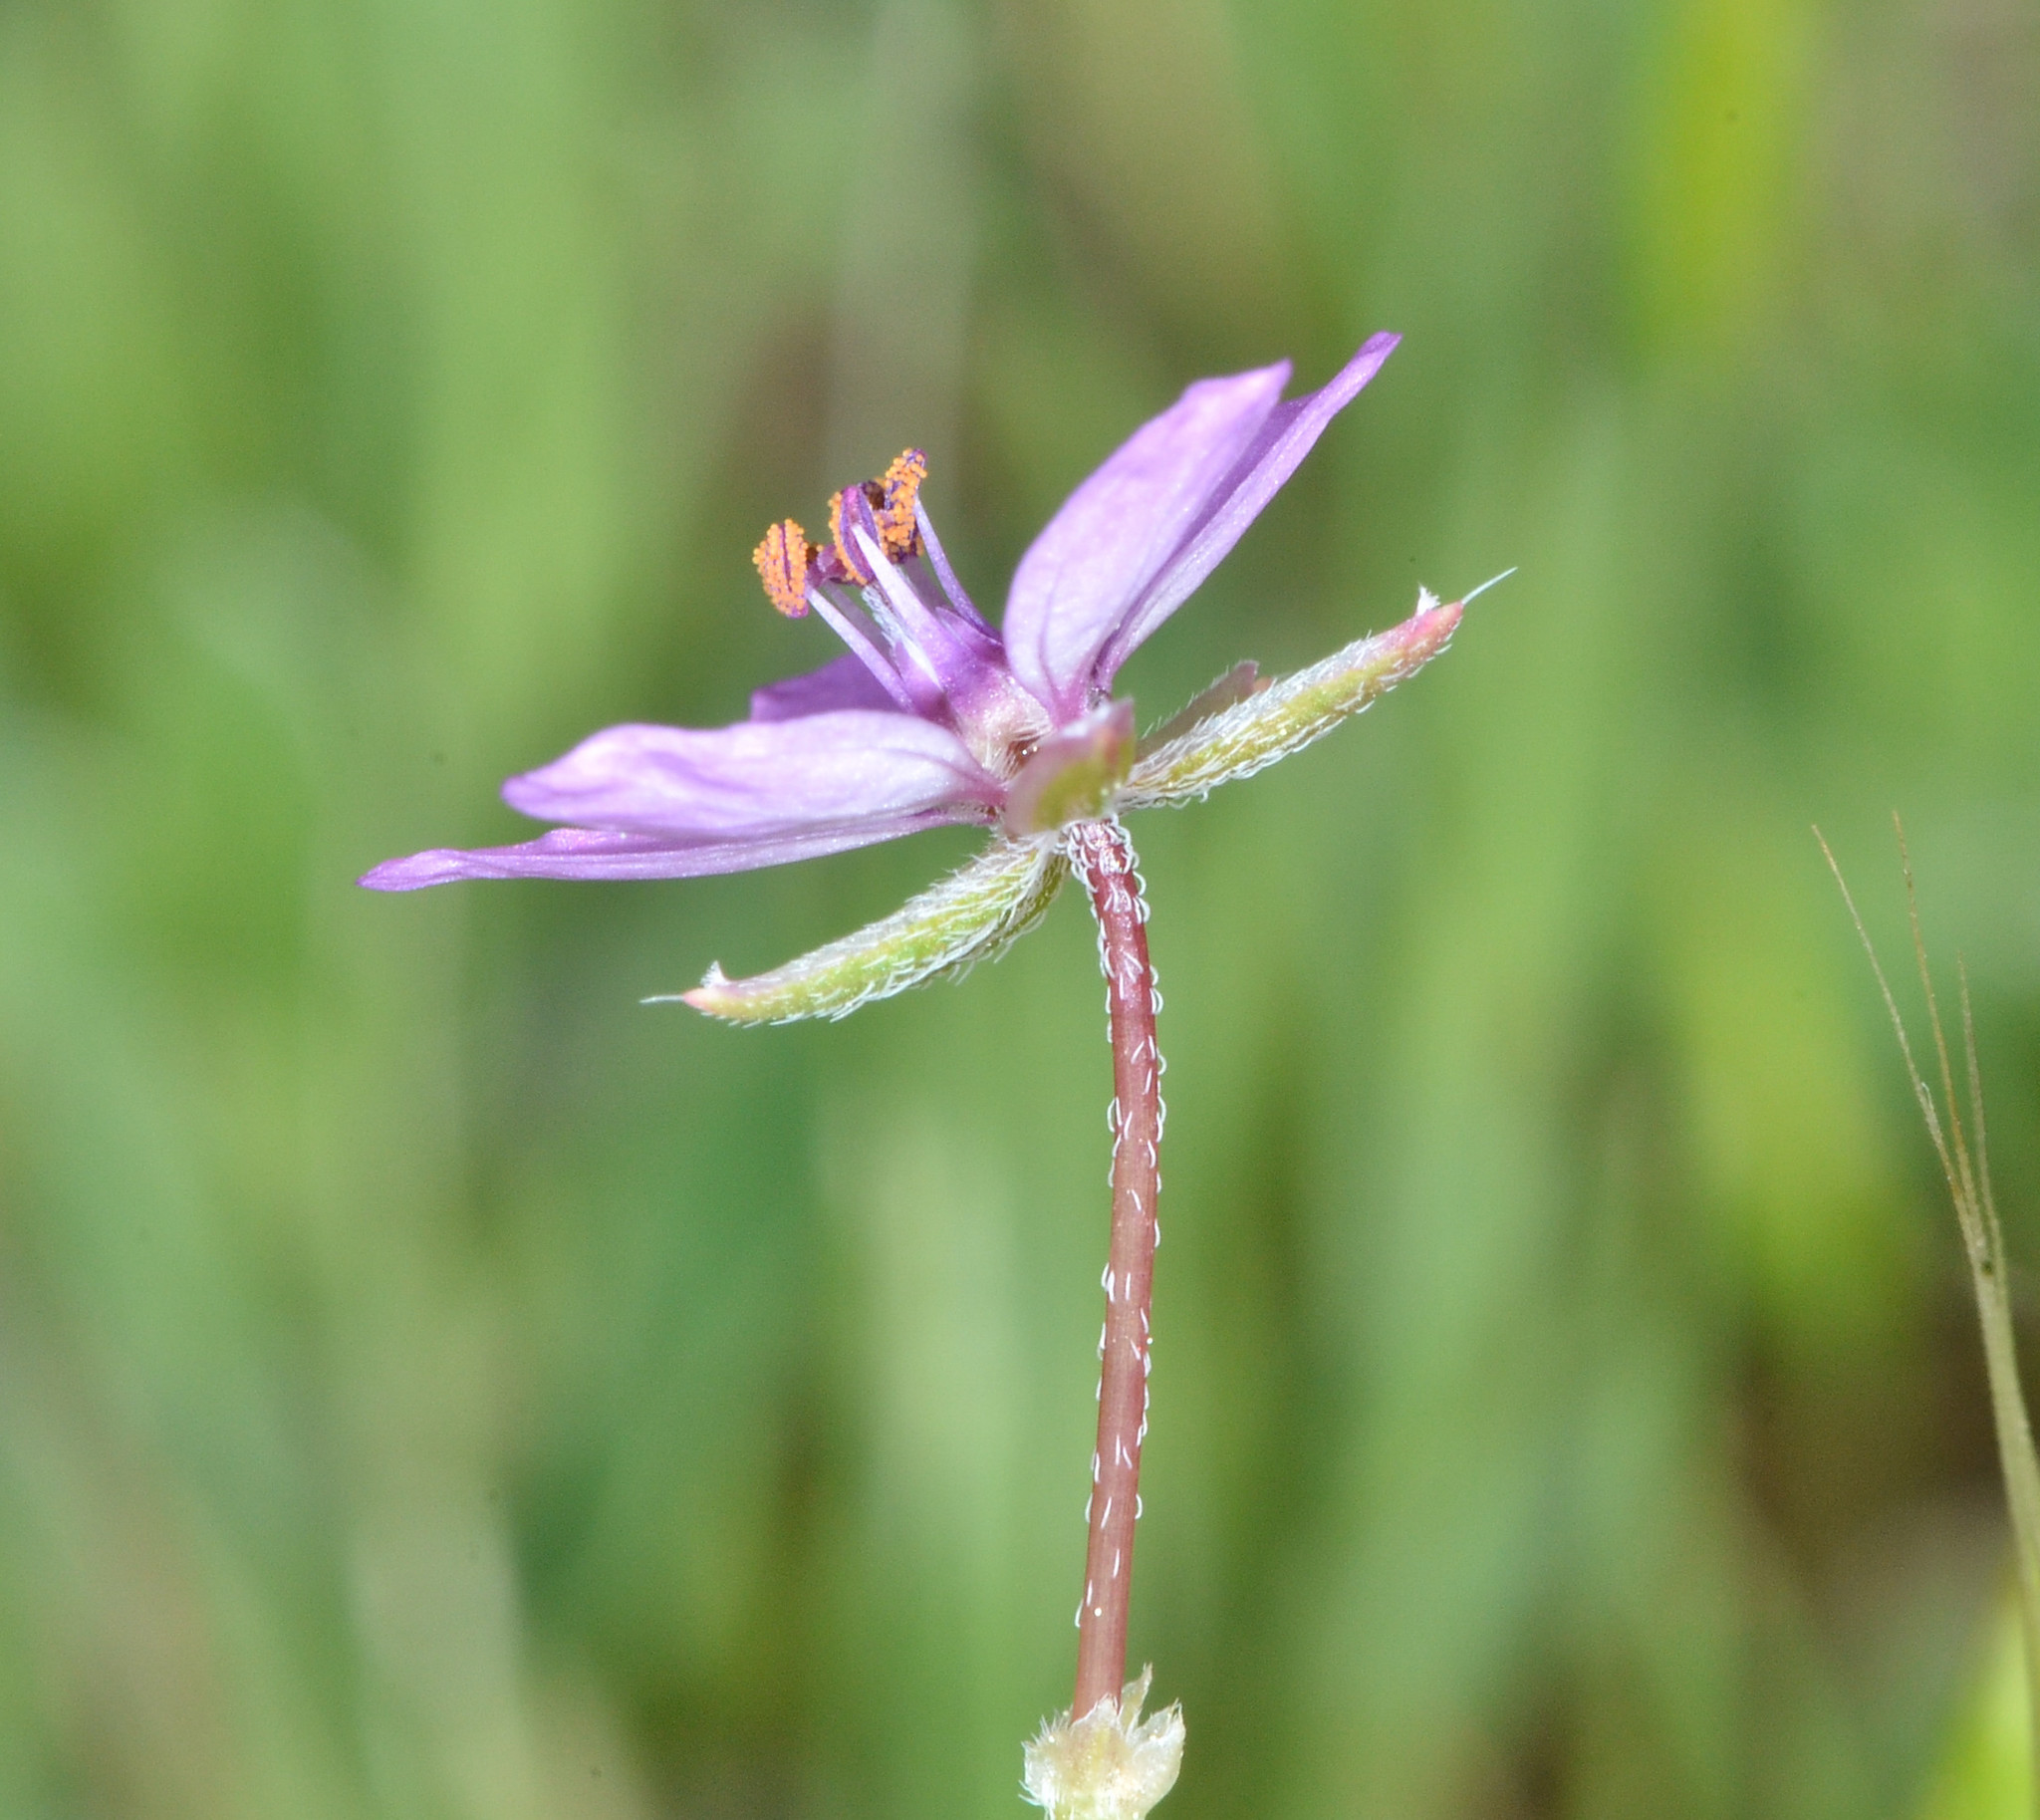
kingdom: Plantae
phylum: Tracheophyta
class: Magnoliopsida
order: Geraniales
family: Geraniaceae
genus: Erodium
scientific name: Erodium cicutarium
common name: Common stork's-bill
